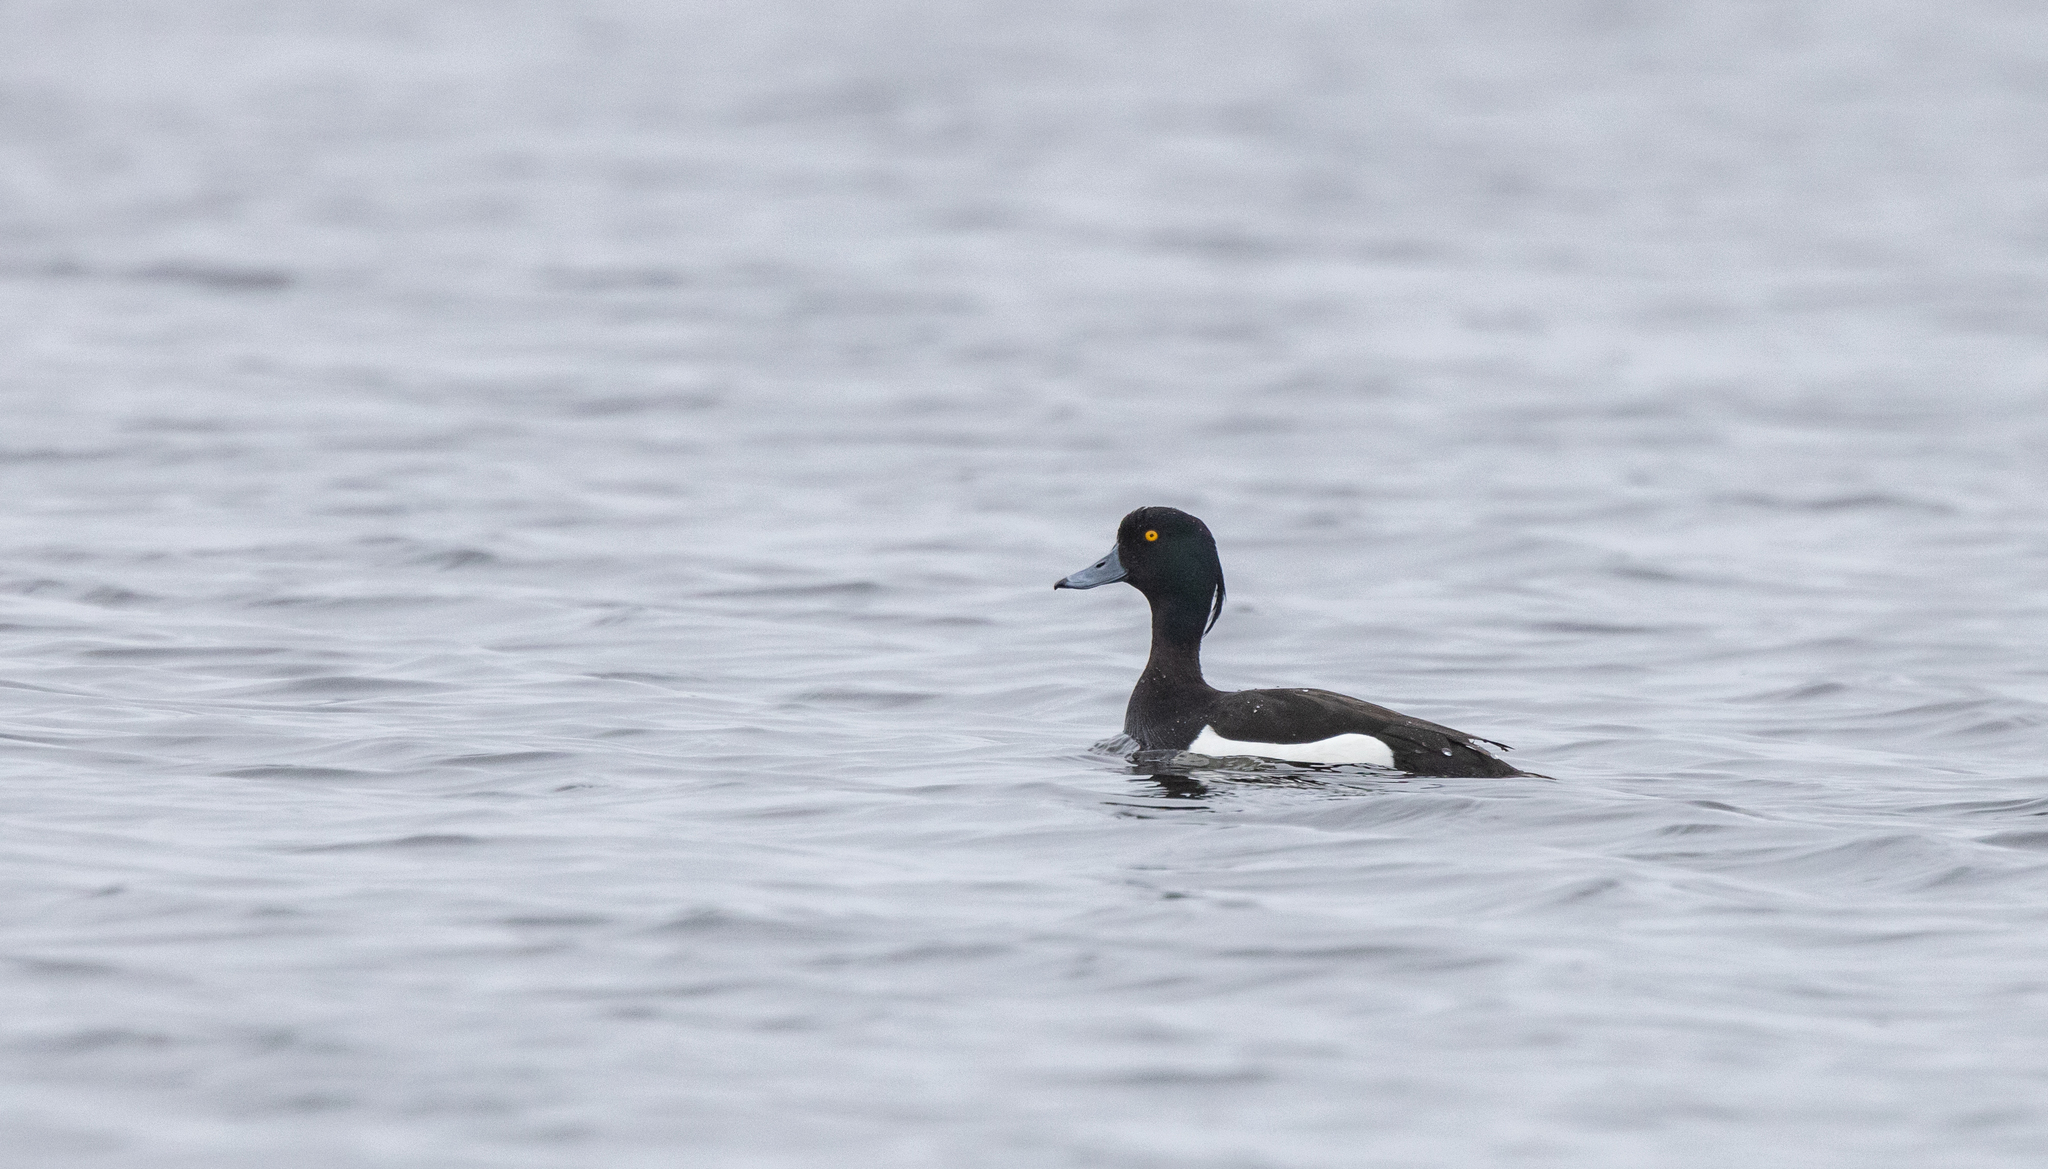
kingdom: Animalia
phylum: Chordata
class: Aves
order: Anseriformes
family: Anatidae
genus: Aythya
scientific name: Aythya fuligula
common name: Tufted duck
